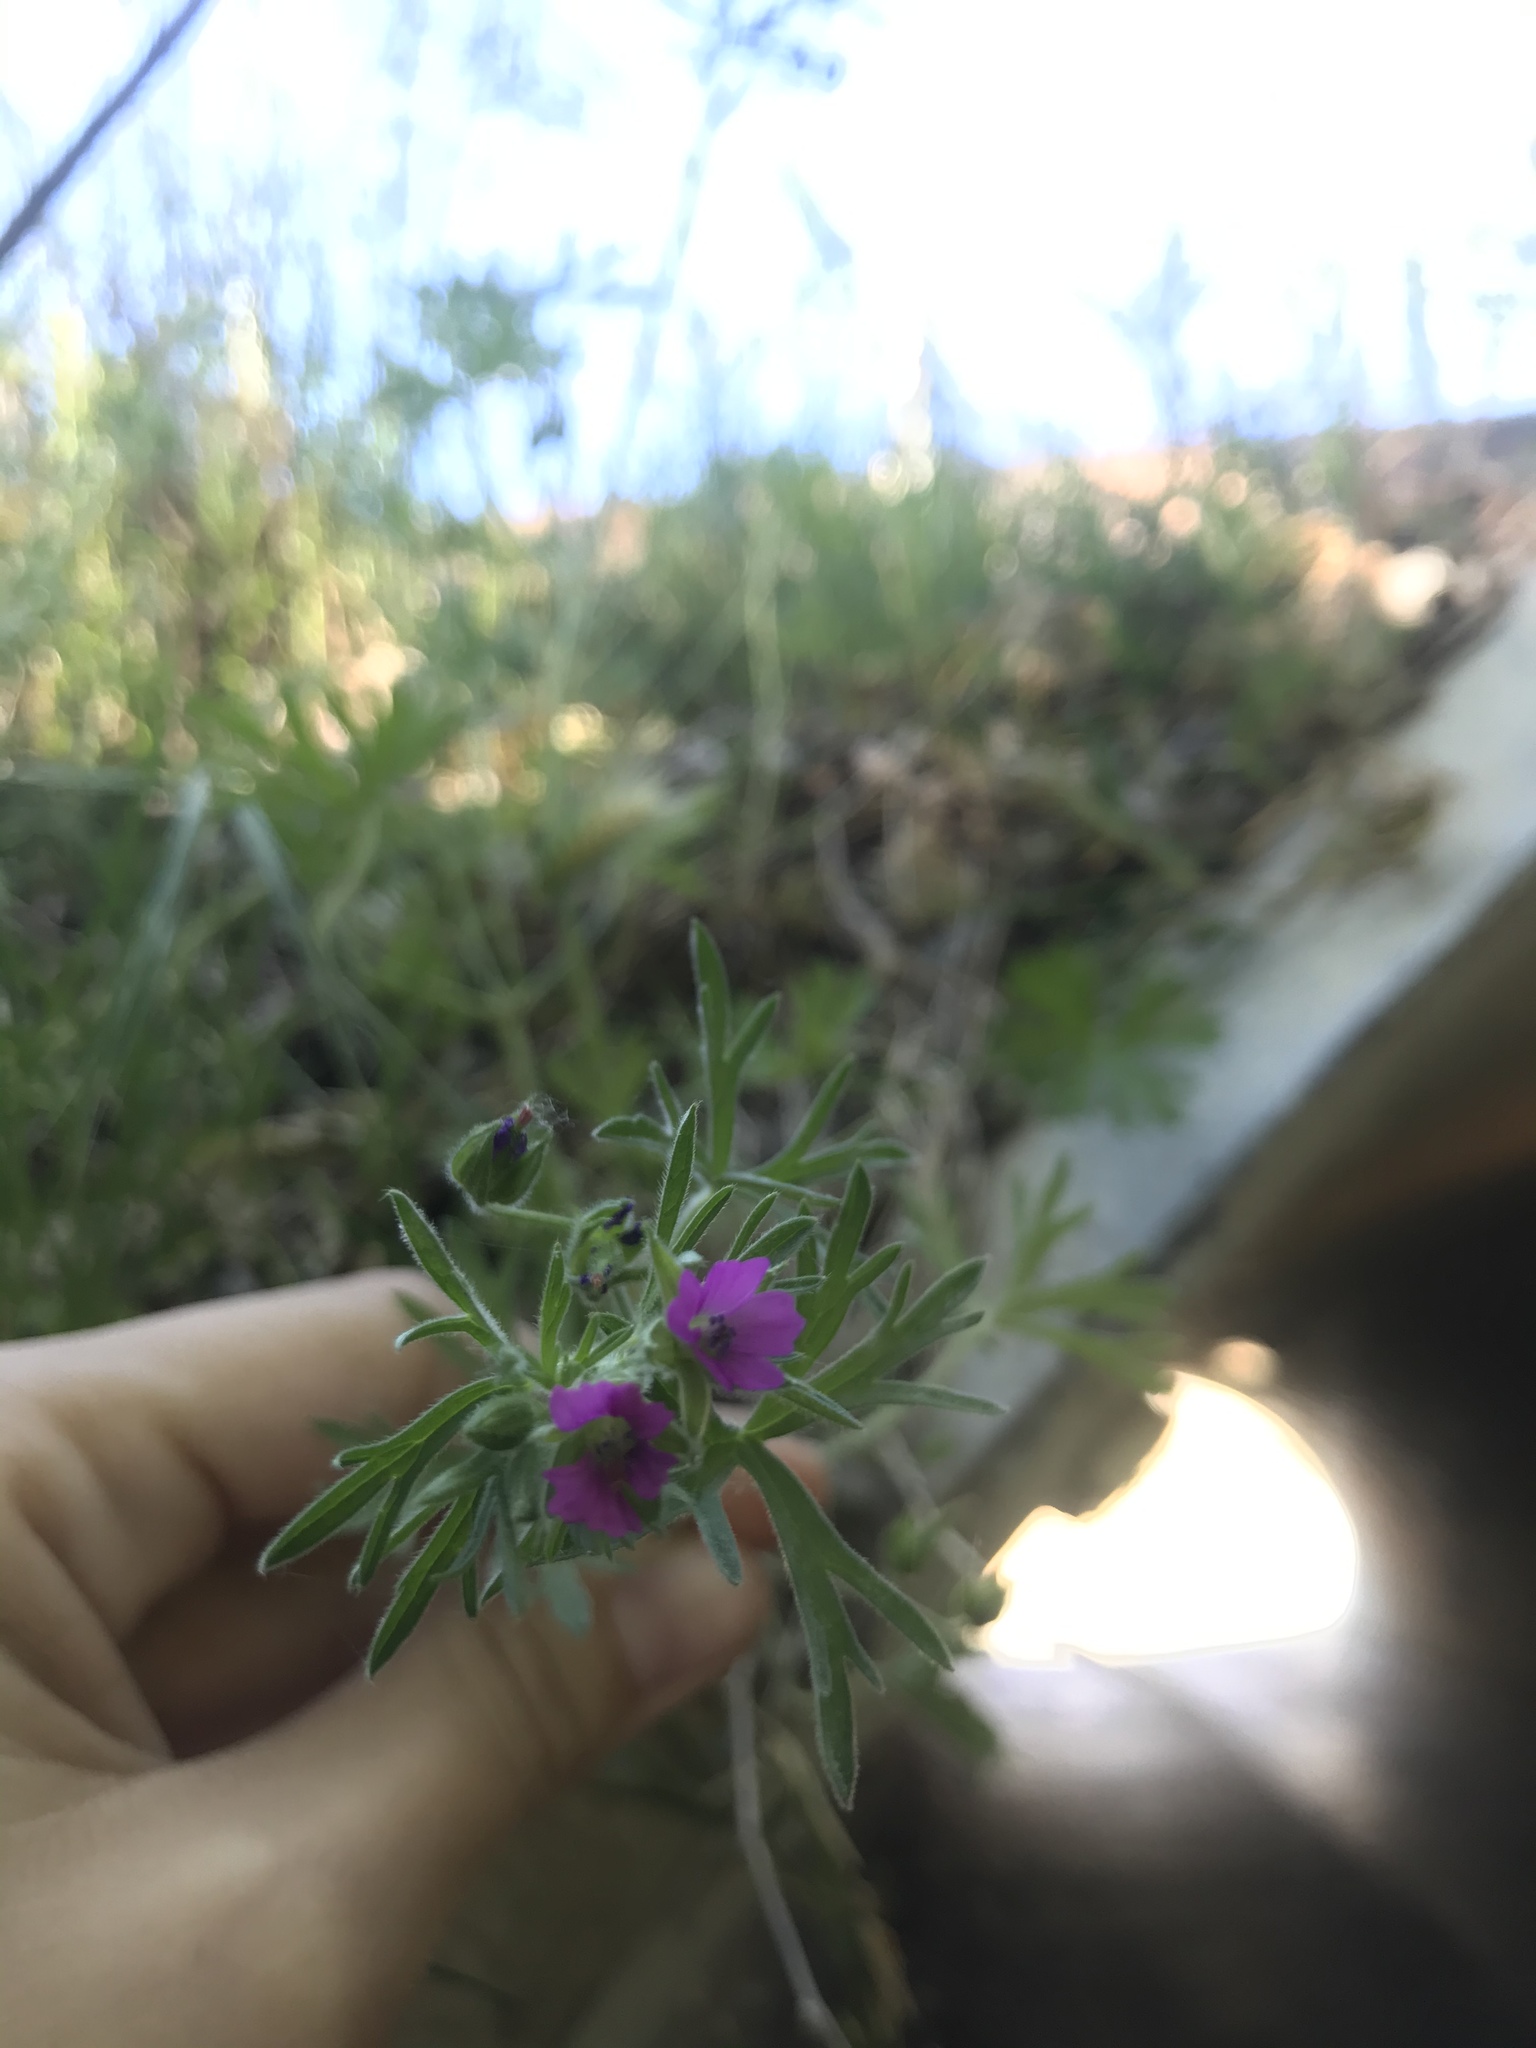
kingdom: Plantae
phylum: Tracheophyta
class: Magnoliopsida
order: Geraniales
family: Geraniaceae
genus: Geranium
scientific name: Geranium dissectum
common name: Cut-leaved crane's-bill
